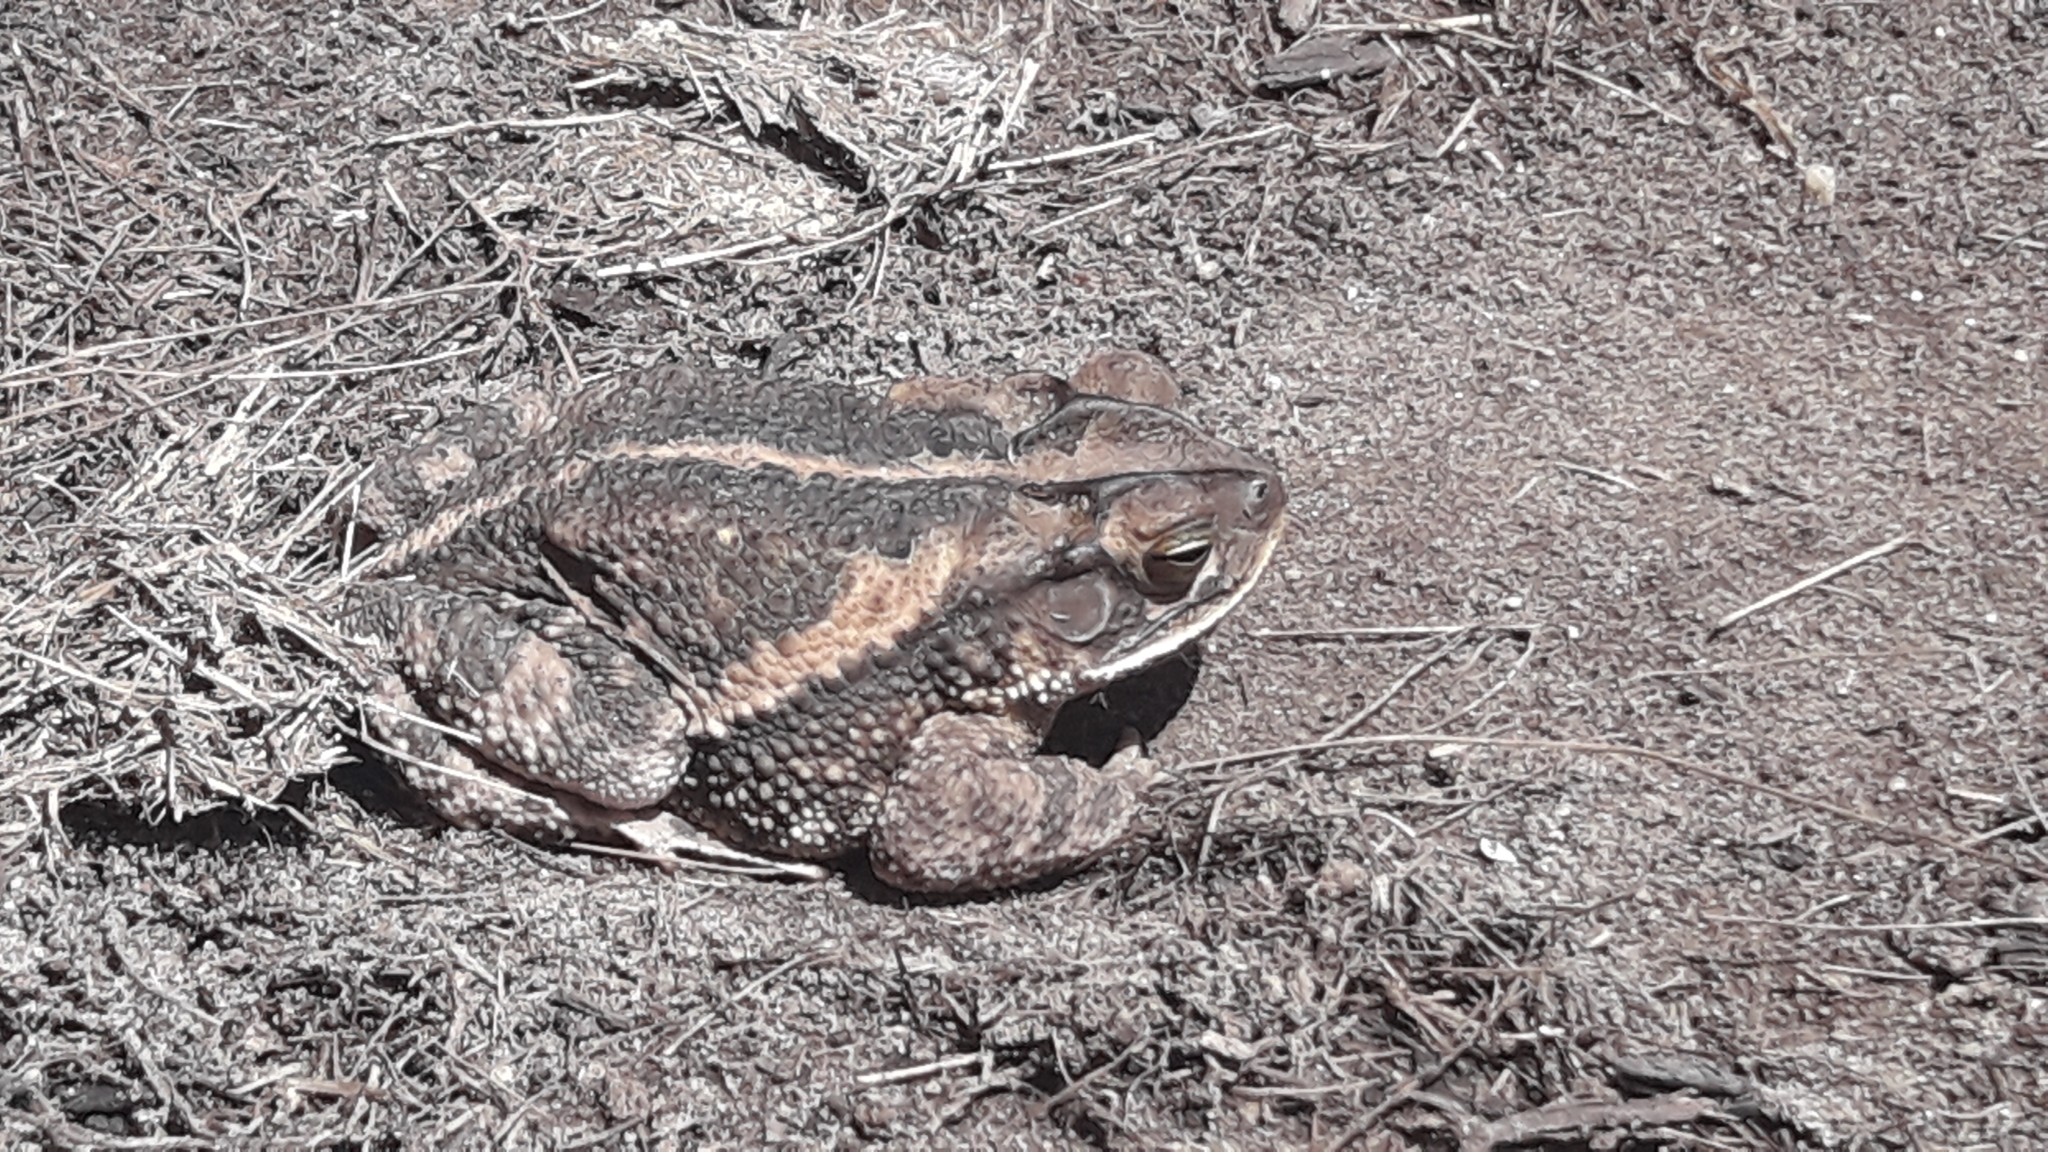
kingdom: Animalia
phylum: Chordata
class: Amphibia
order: Anura
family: Bufonidae
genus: Incilius
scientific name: Incilius nebulifer
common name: Gulf coast toad
